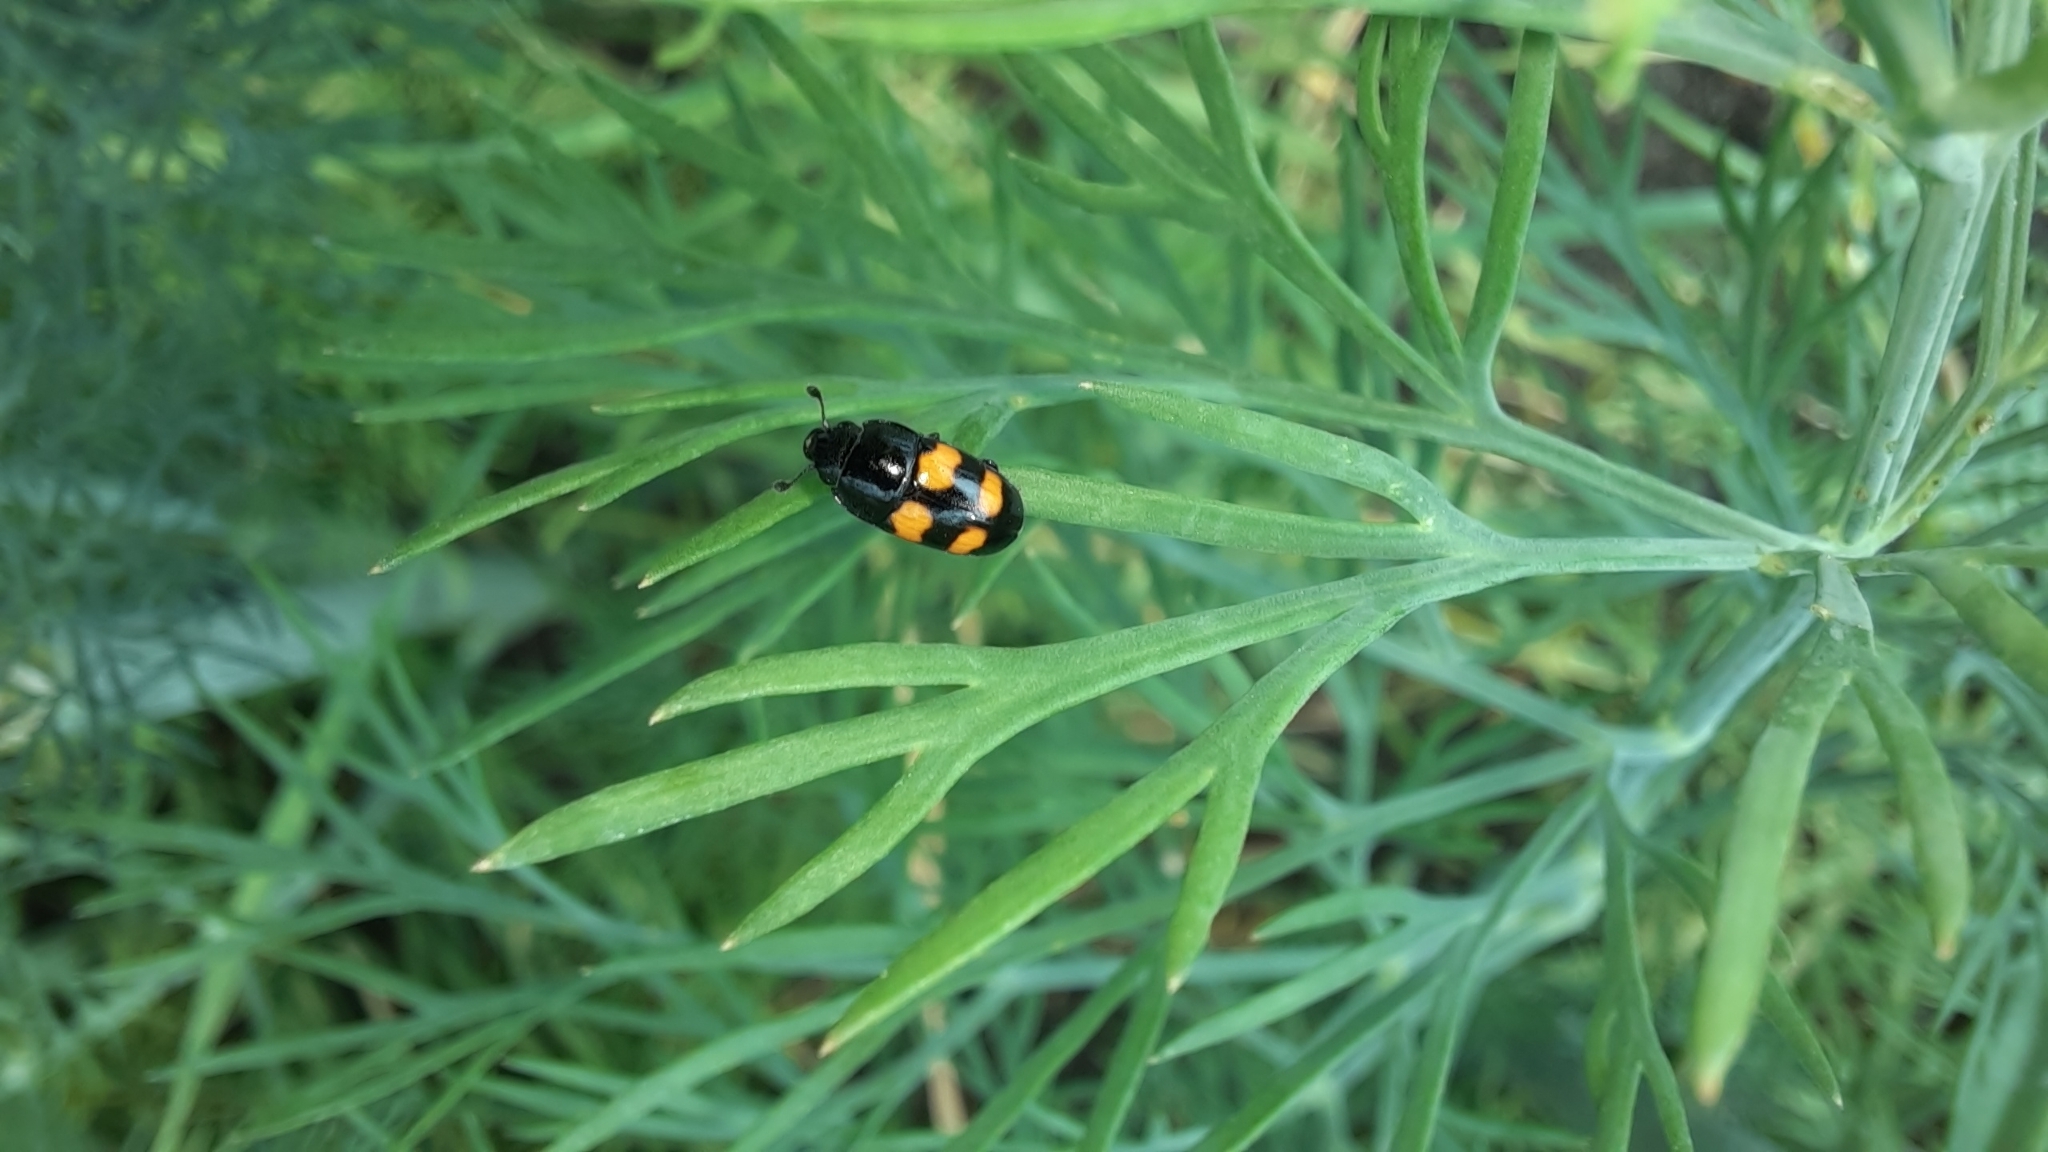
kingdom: Animalia
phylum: Arthropoda
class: Insecta
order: Coleoptera
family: Nitidulidae
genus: Glischrochilus
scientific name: Glischrochilus grandis
